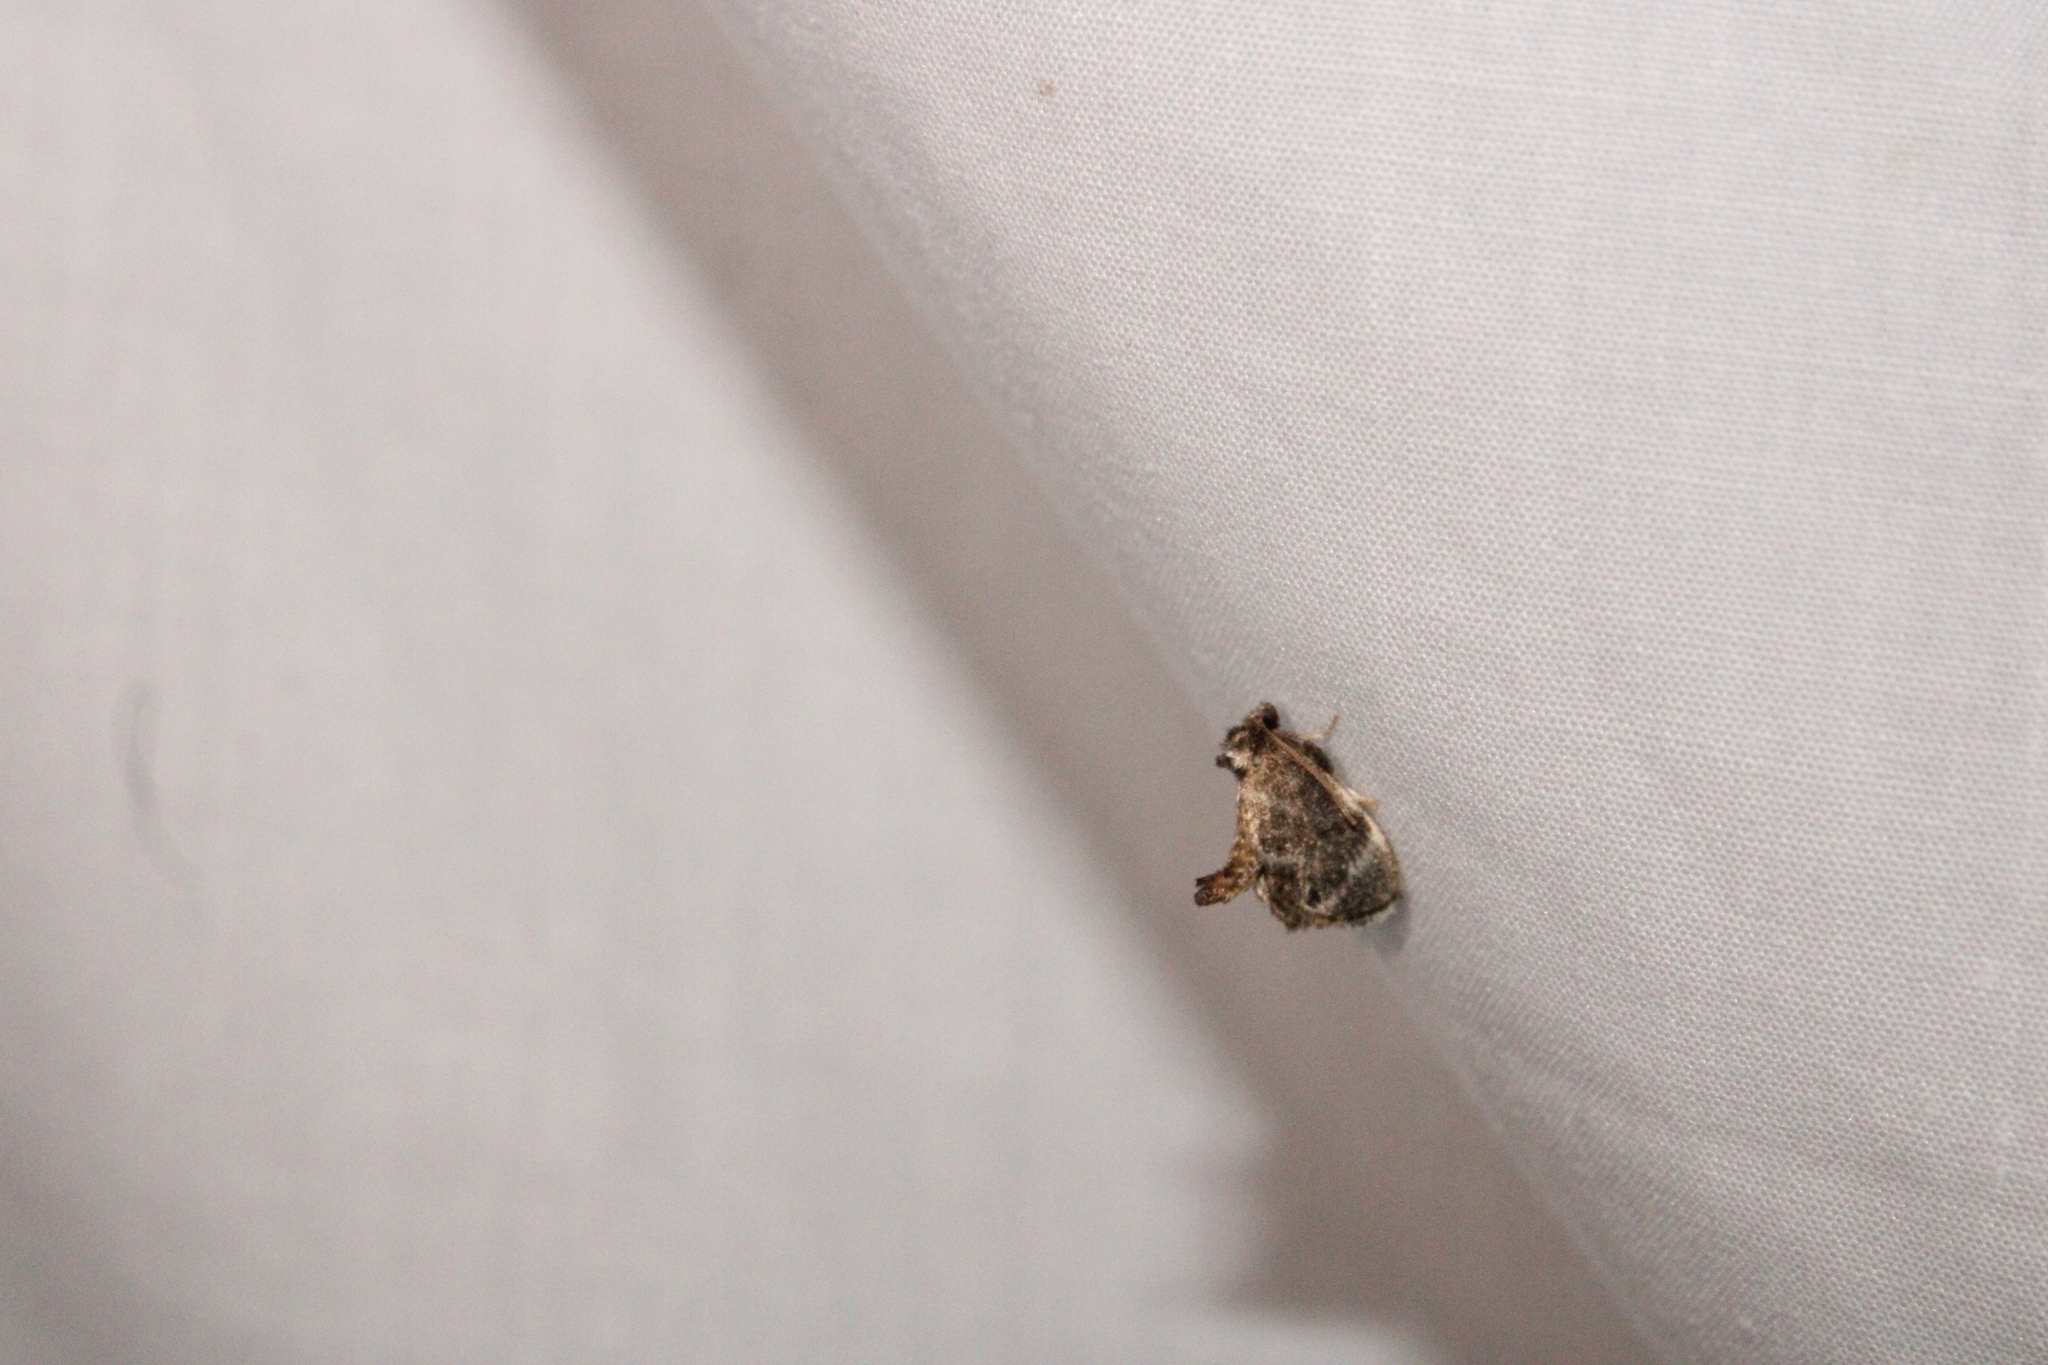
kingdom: Animalia
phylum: Arthropoda
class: Insecta
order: Lepidoptera
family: Limacodidae
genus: Packardia
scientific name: Packardia elegans
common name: Elegant tailed slug moth
